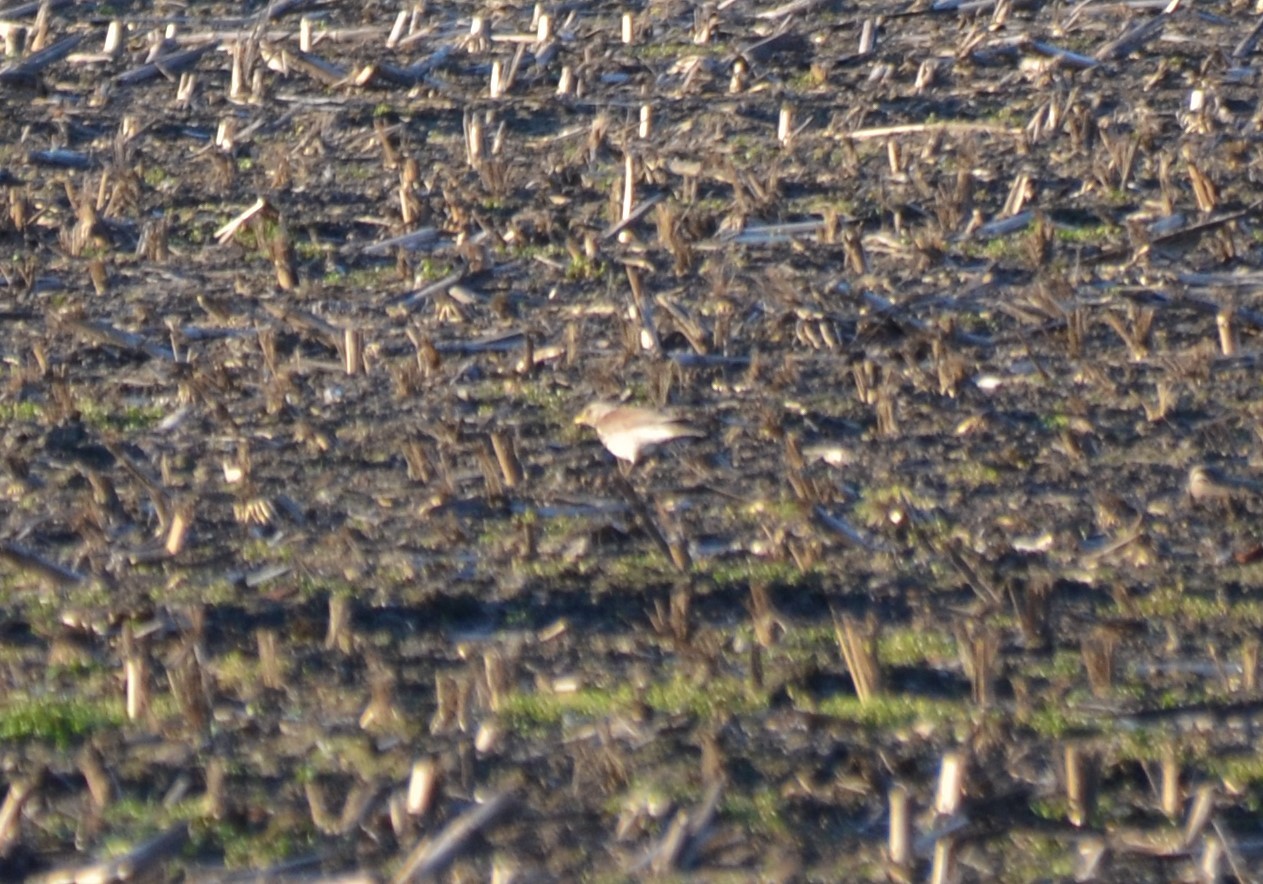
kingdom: Animalia
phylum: Chordata
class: Aves
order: Passeriformes
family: Turdidae
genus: Turdus
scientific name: Turdus pilaris
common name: Fieldfare
